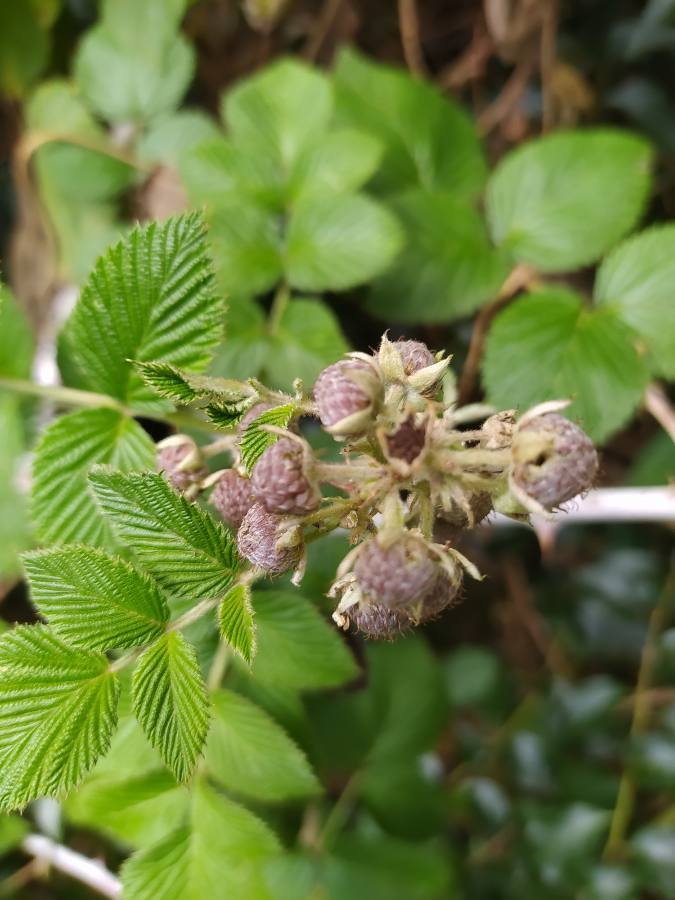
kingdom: Plantae
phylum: Tracheophyta
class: Magnoliopsida
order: Rosales
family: Rosaceae
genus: Rubus
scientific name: Rubus niveus
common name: Snowpeaks raspberry
